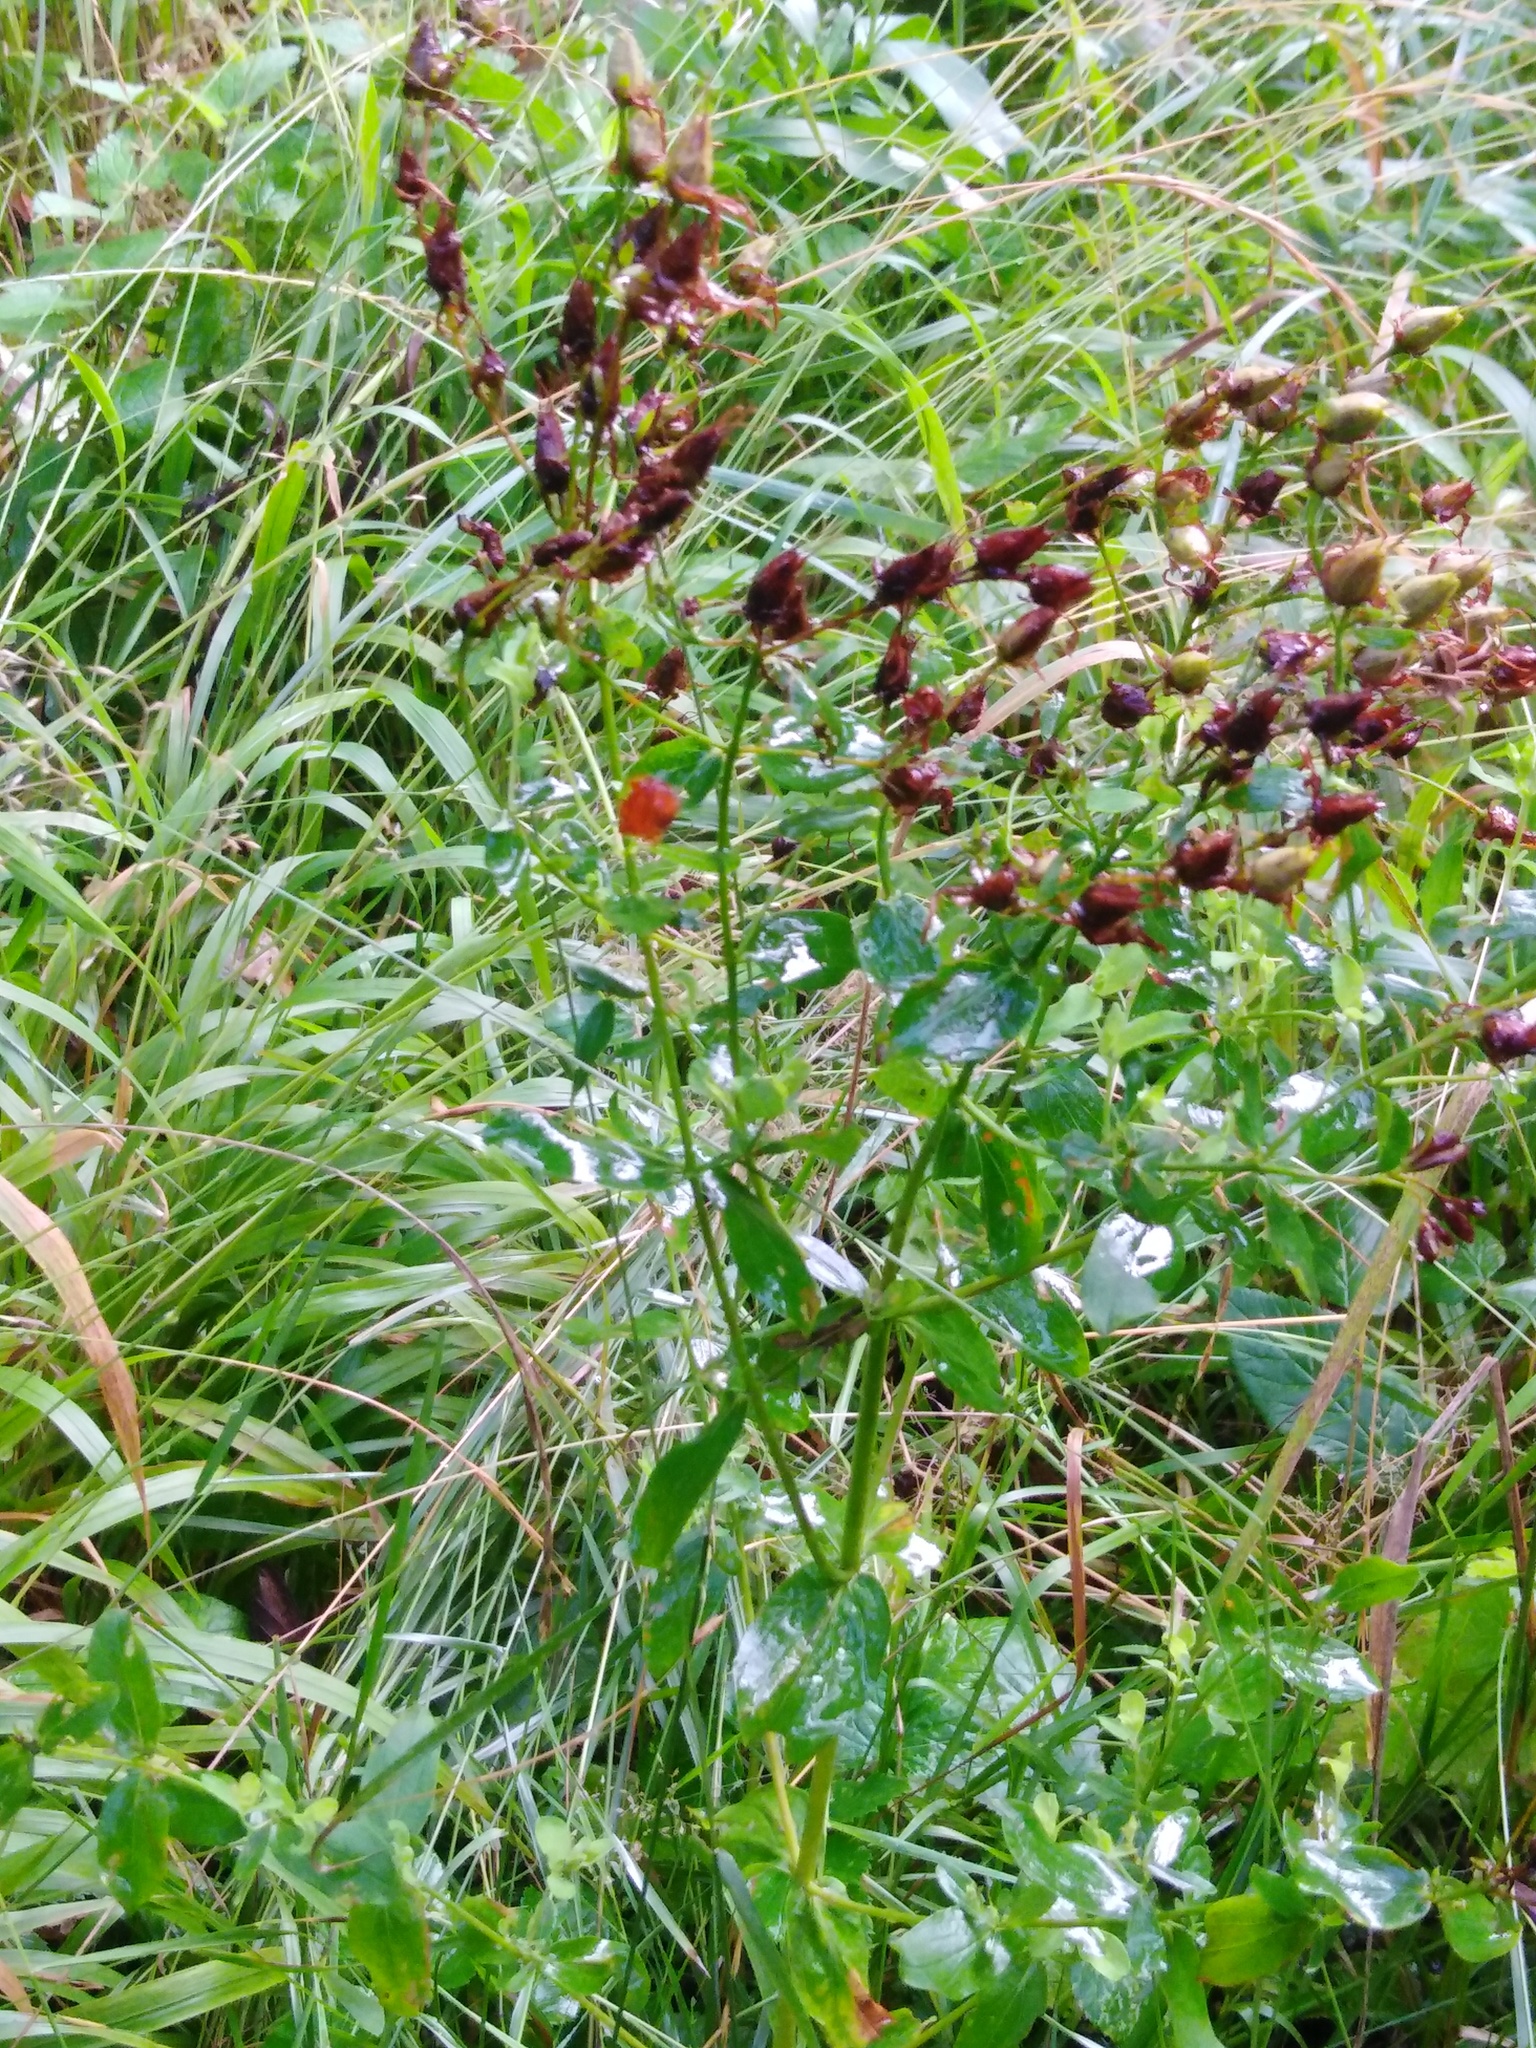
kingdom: Plantae
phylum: Tracheophyta
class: Magnoliopsida
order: Malpighiales
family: Hypericaceae
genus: Hypericum
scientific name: Hypericum perforatum
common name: Common st. johnswort
